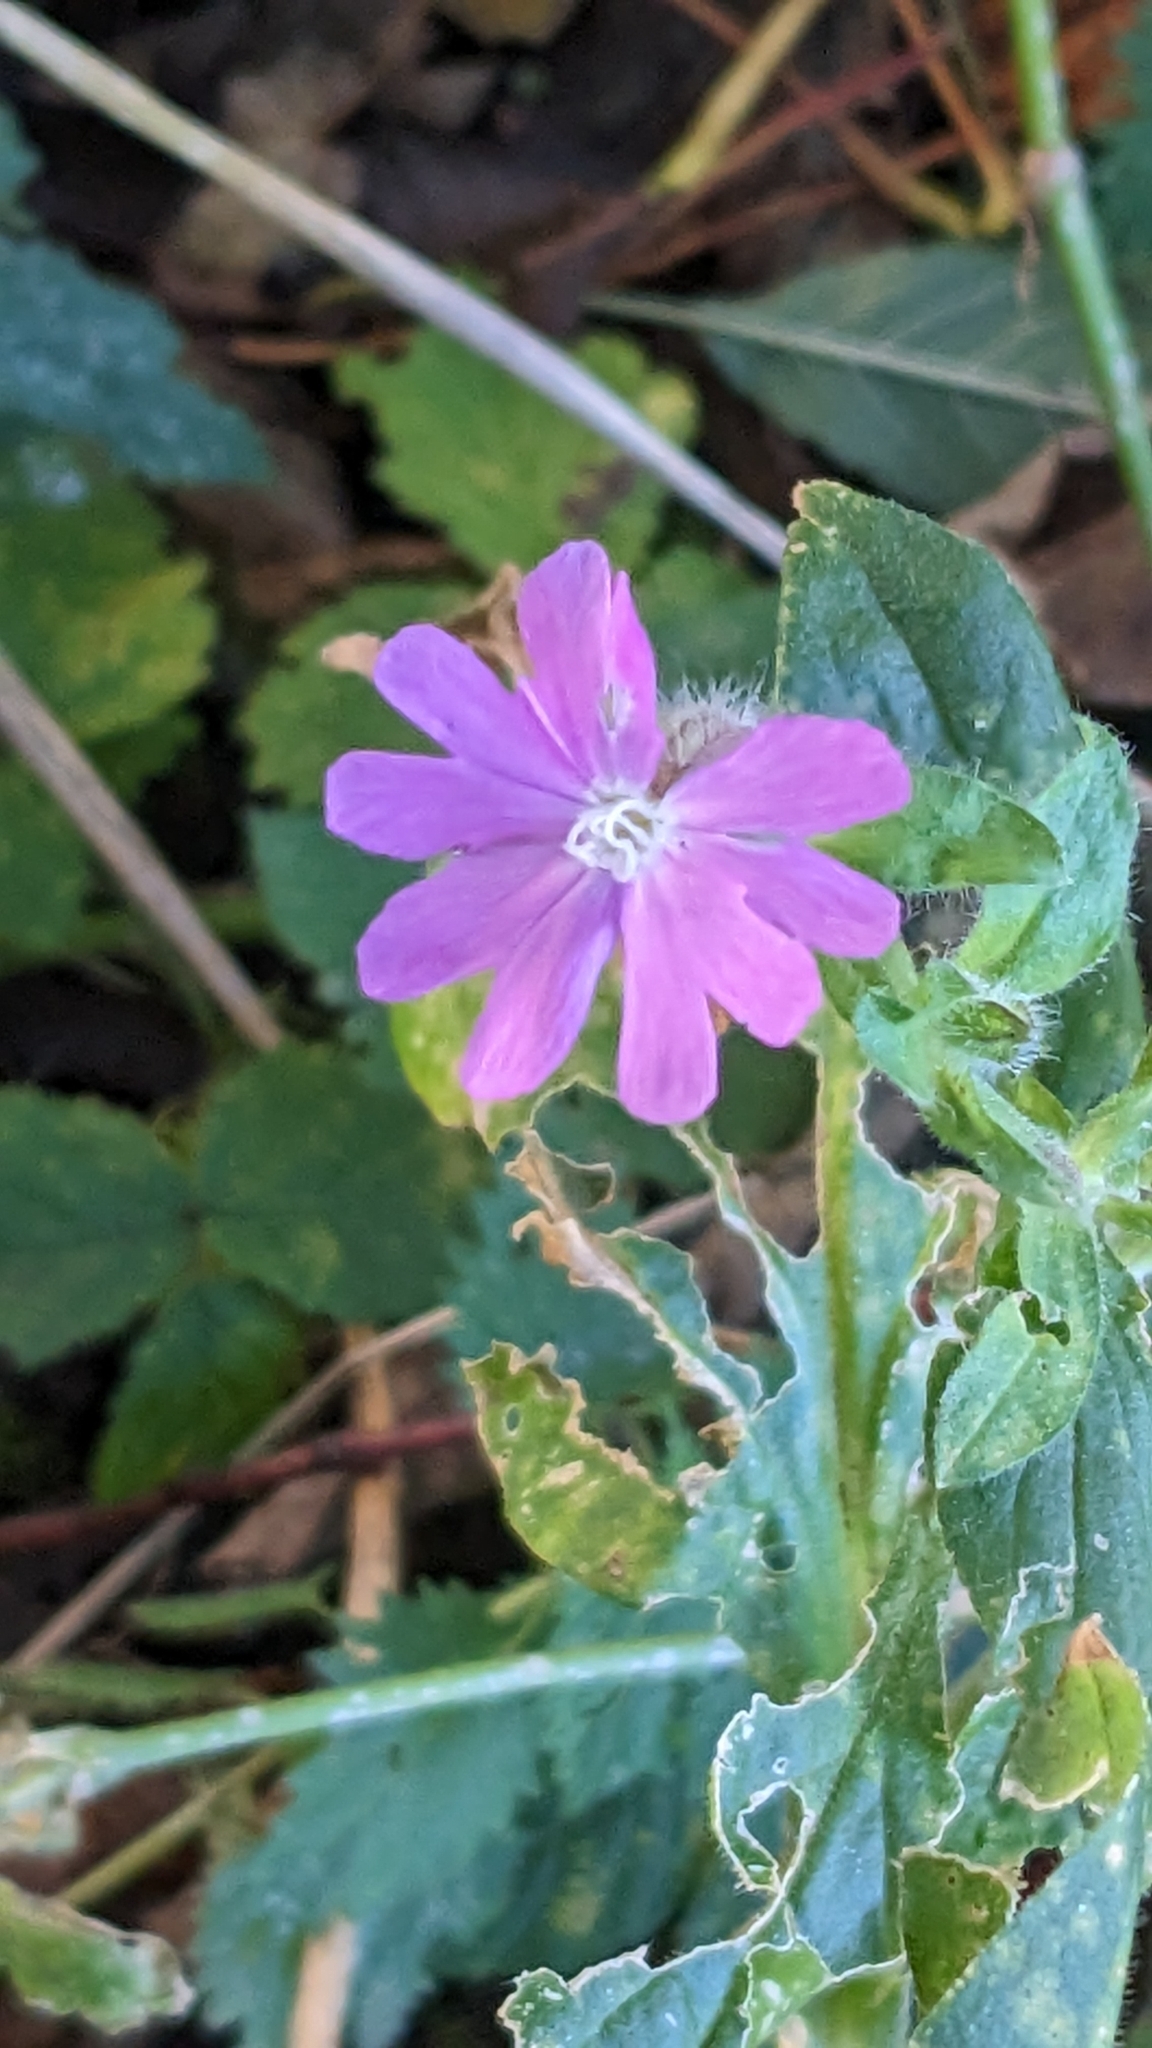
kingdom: Plantae
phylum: Tracheophyta
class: Magnoliopsida
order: Caryophyllales
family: Caryophyllaceae
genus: Silene
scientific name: Silene dioica
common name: Red campion
